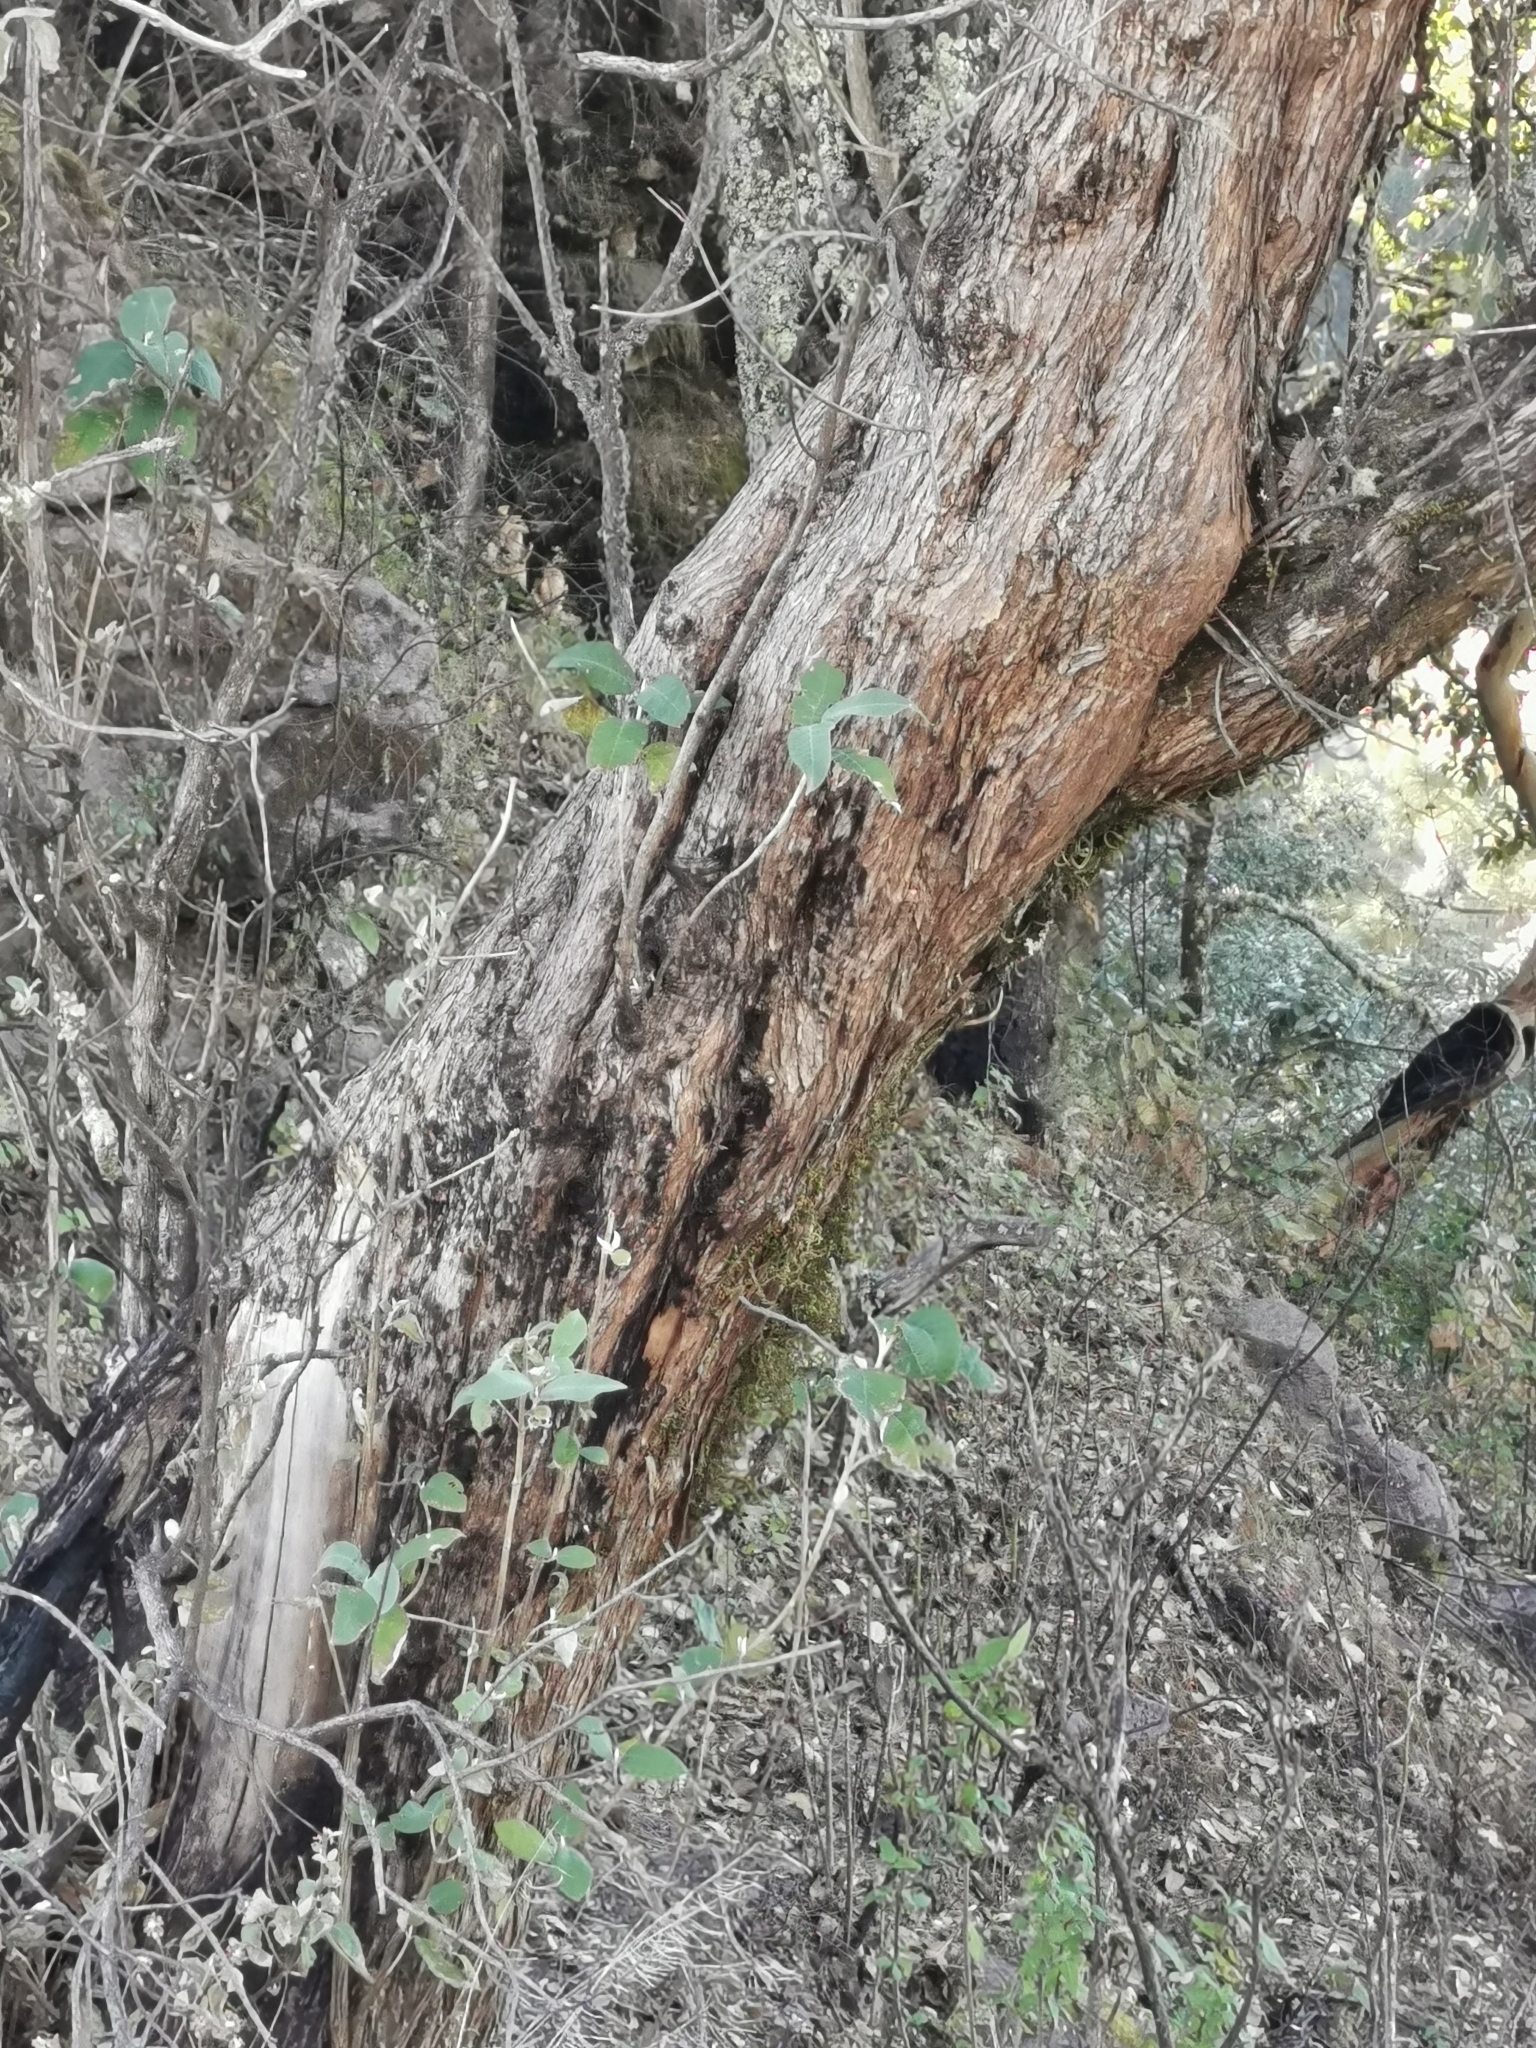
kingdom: Plantae
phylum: Tracheophyta
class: Magnoliopsida
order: Lamiales
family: Scrophulariaceae
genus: Buddleja
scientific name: Buddleja cordata
